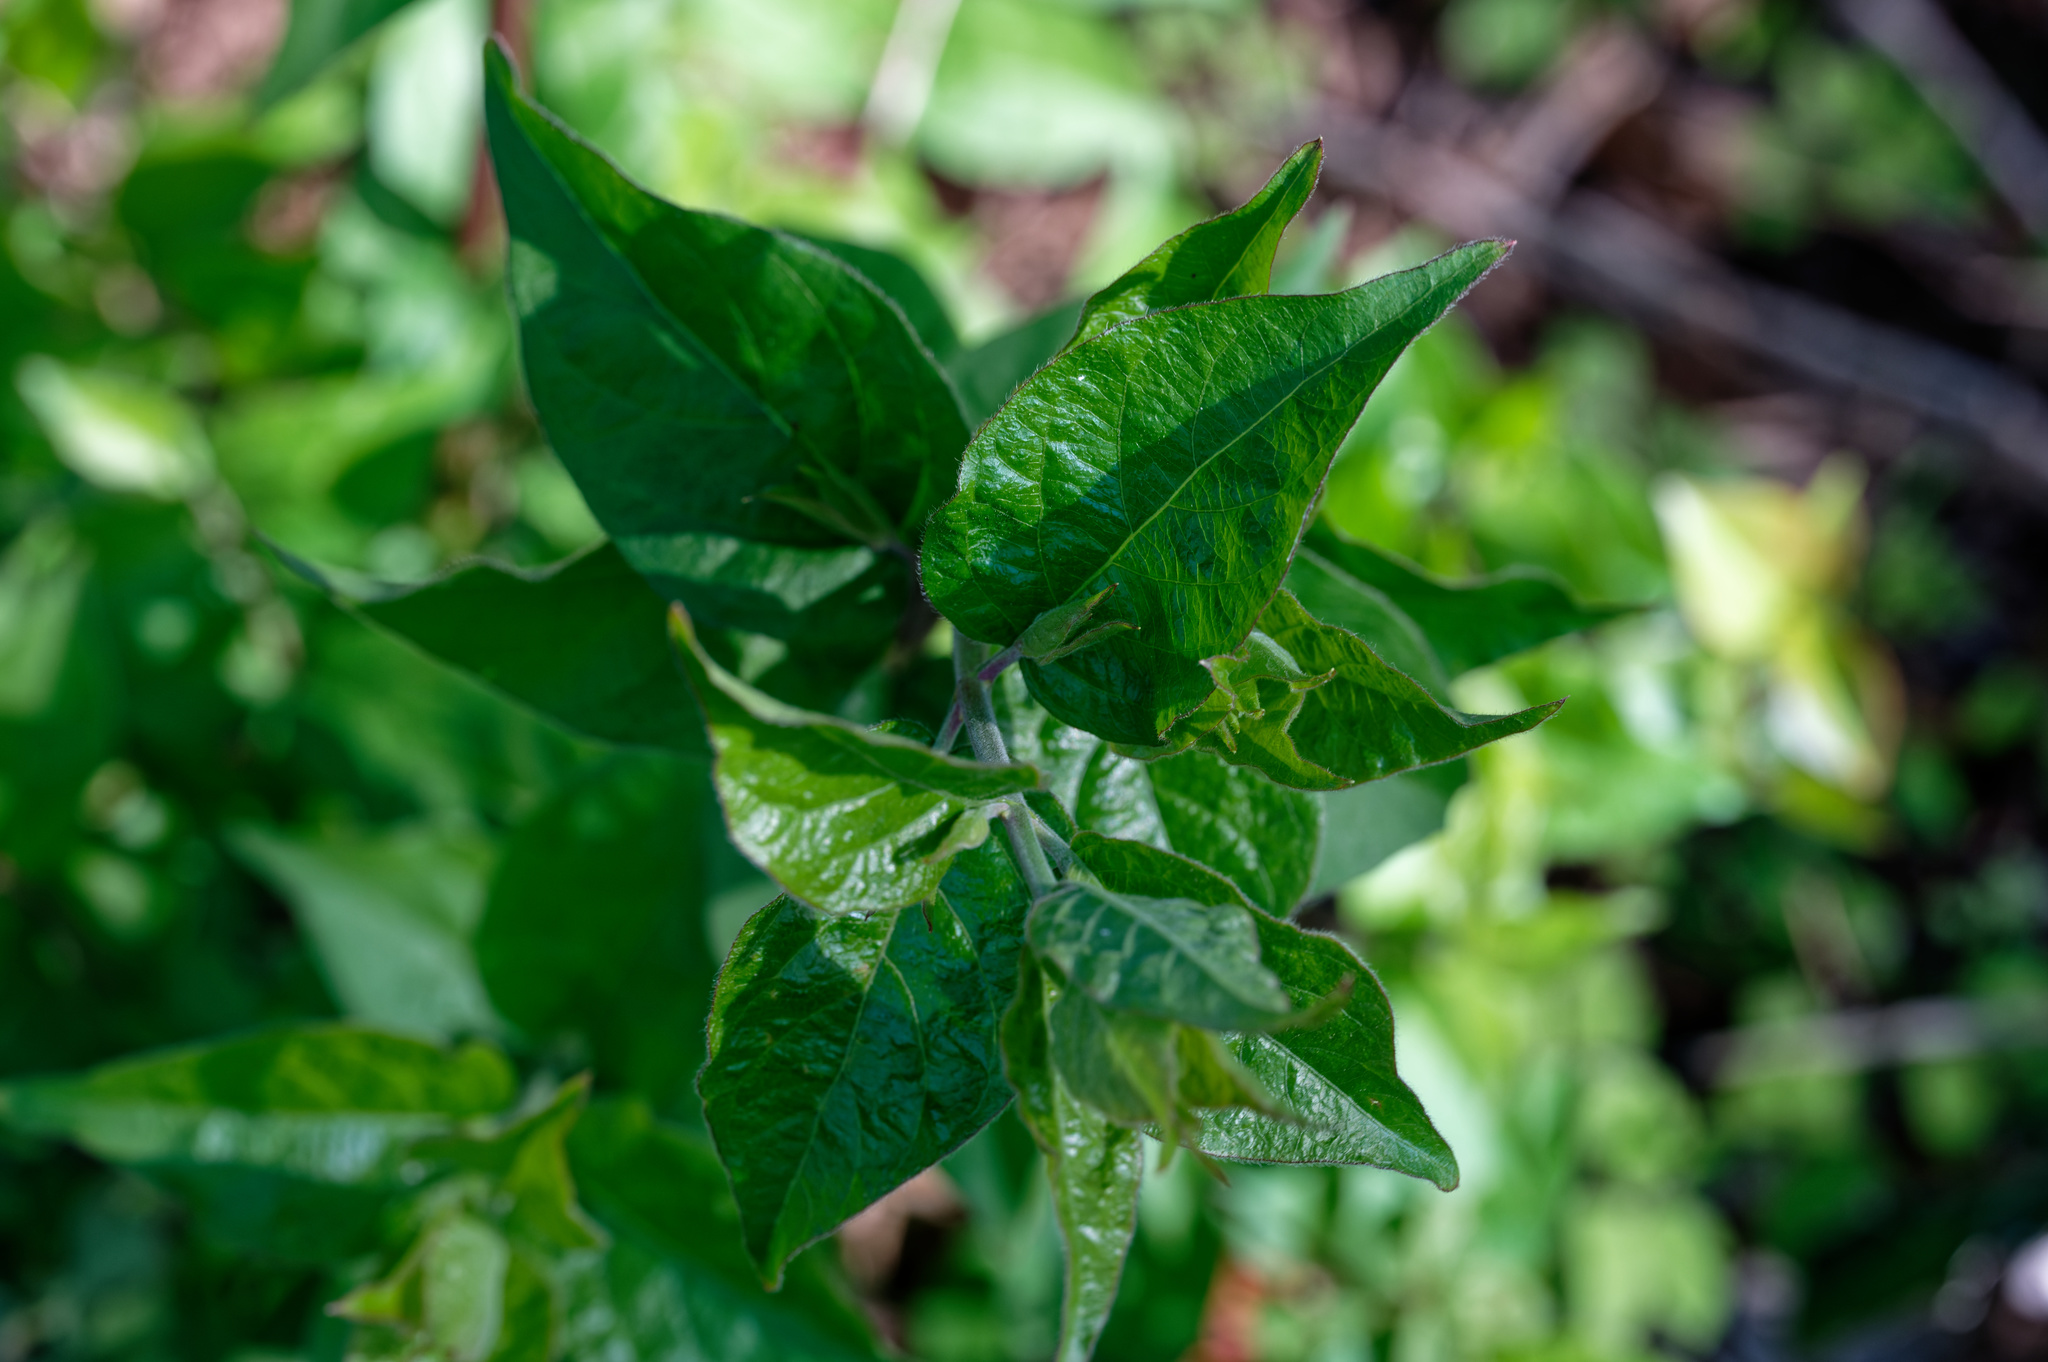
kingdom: Plantae
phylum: Tracheophyta
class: Magnoliopsida
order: Solanales
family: Solanaceae
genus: Solanum
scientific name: Solanum dulcamara
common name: Climbing nightshade
